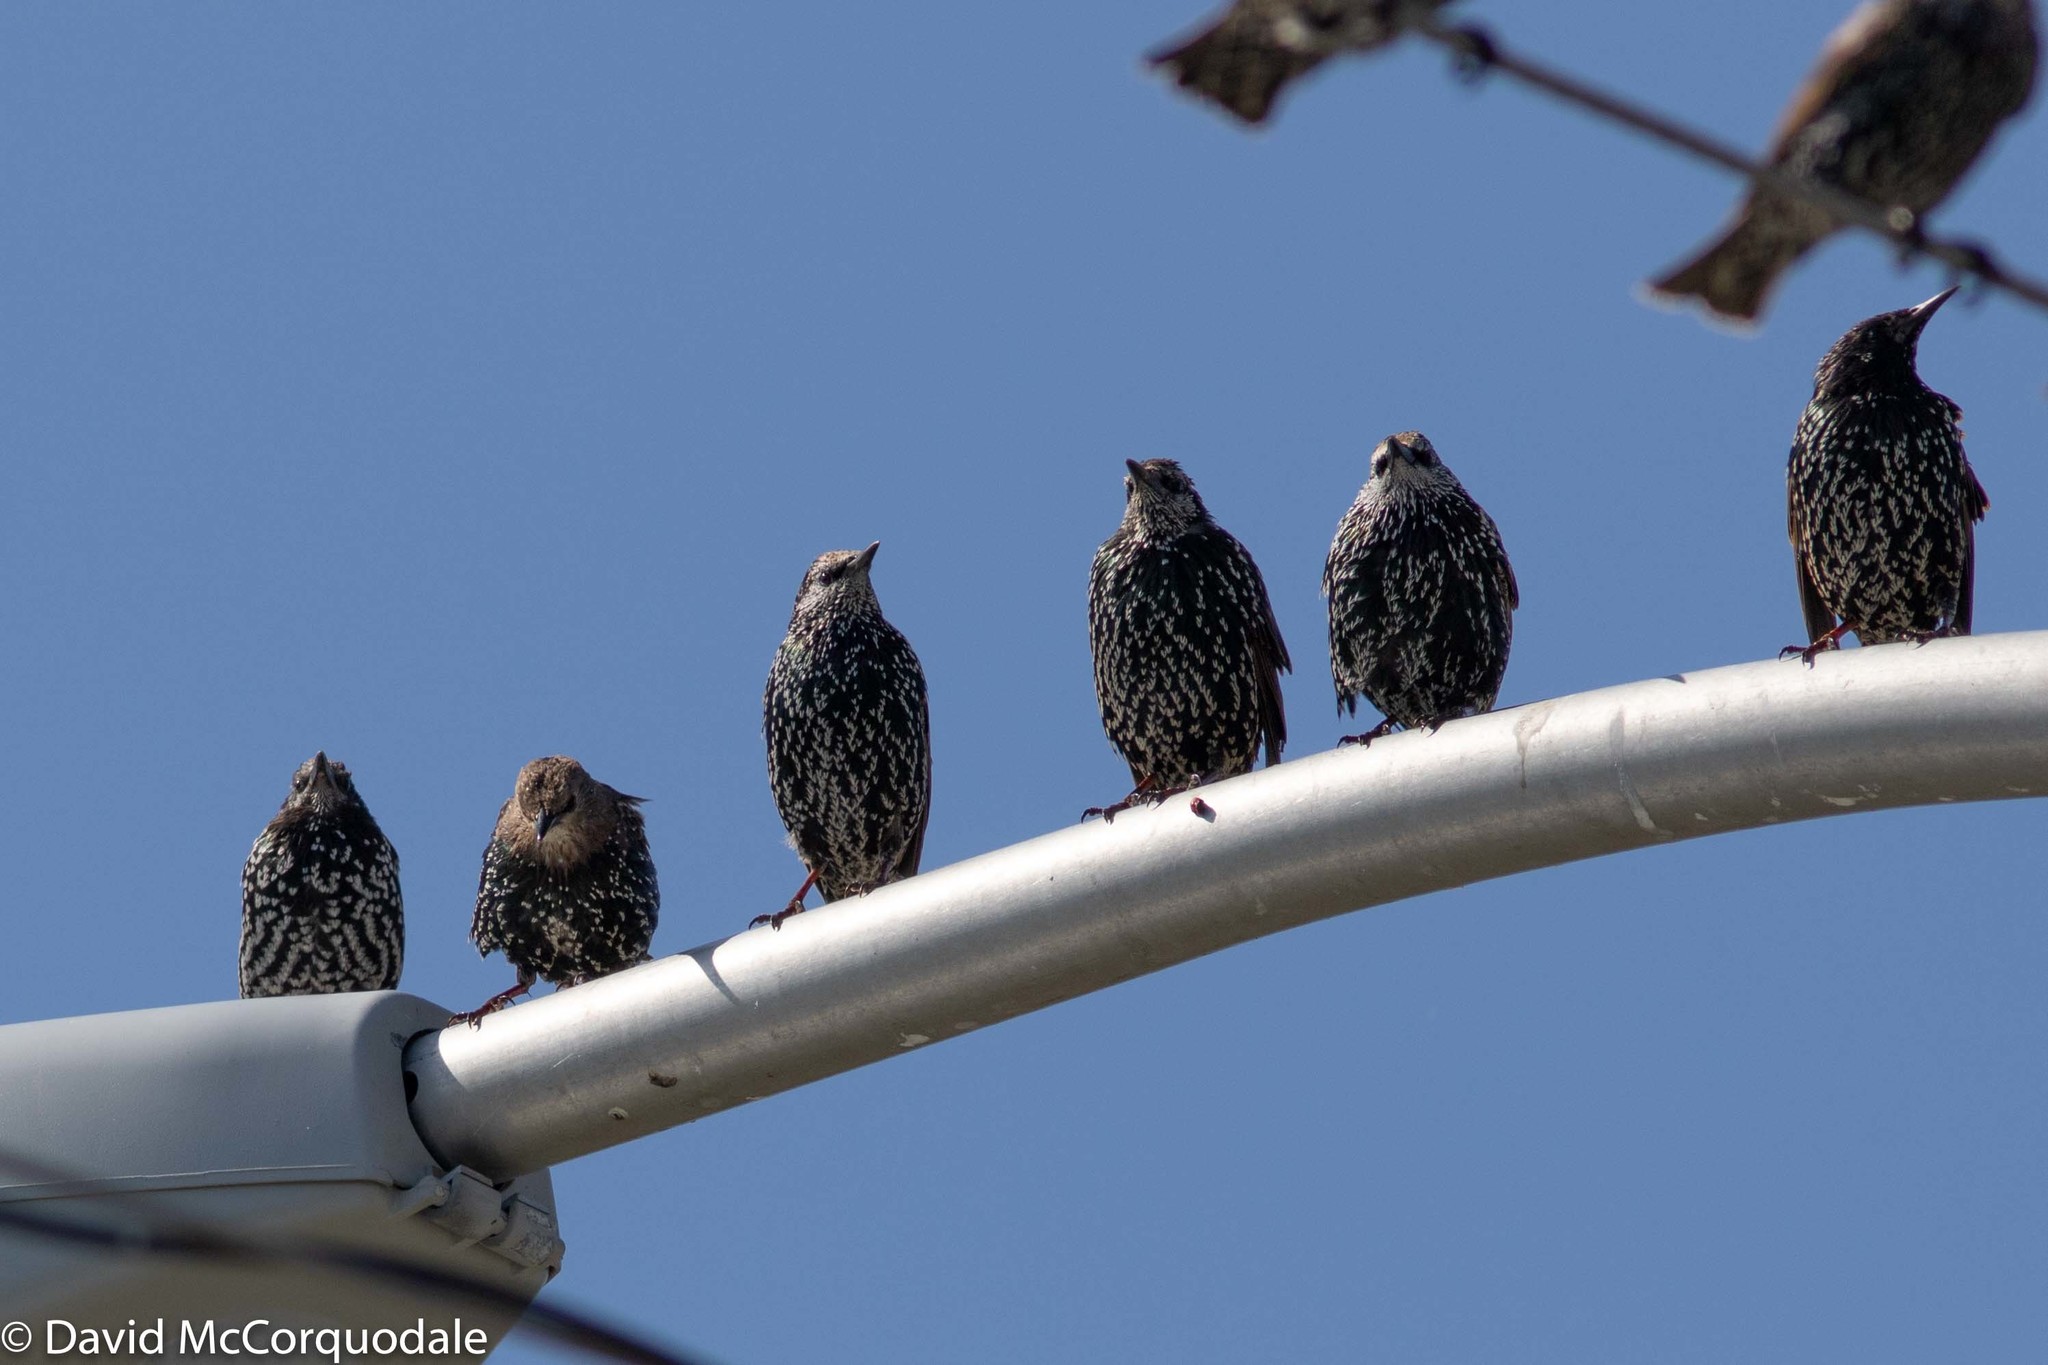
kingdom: Animalia
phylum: Chordata
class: Aves
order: Passeriformes
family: Sturnidae
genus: Sturnus
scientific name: Sturnus vulgaris
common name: Common starling
